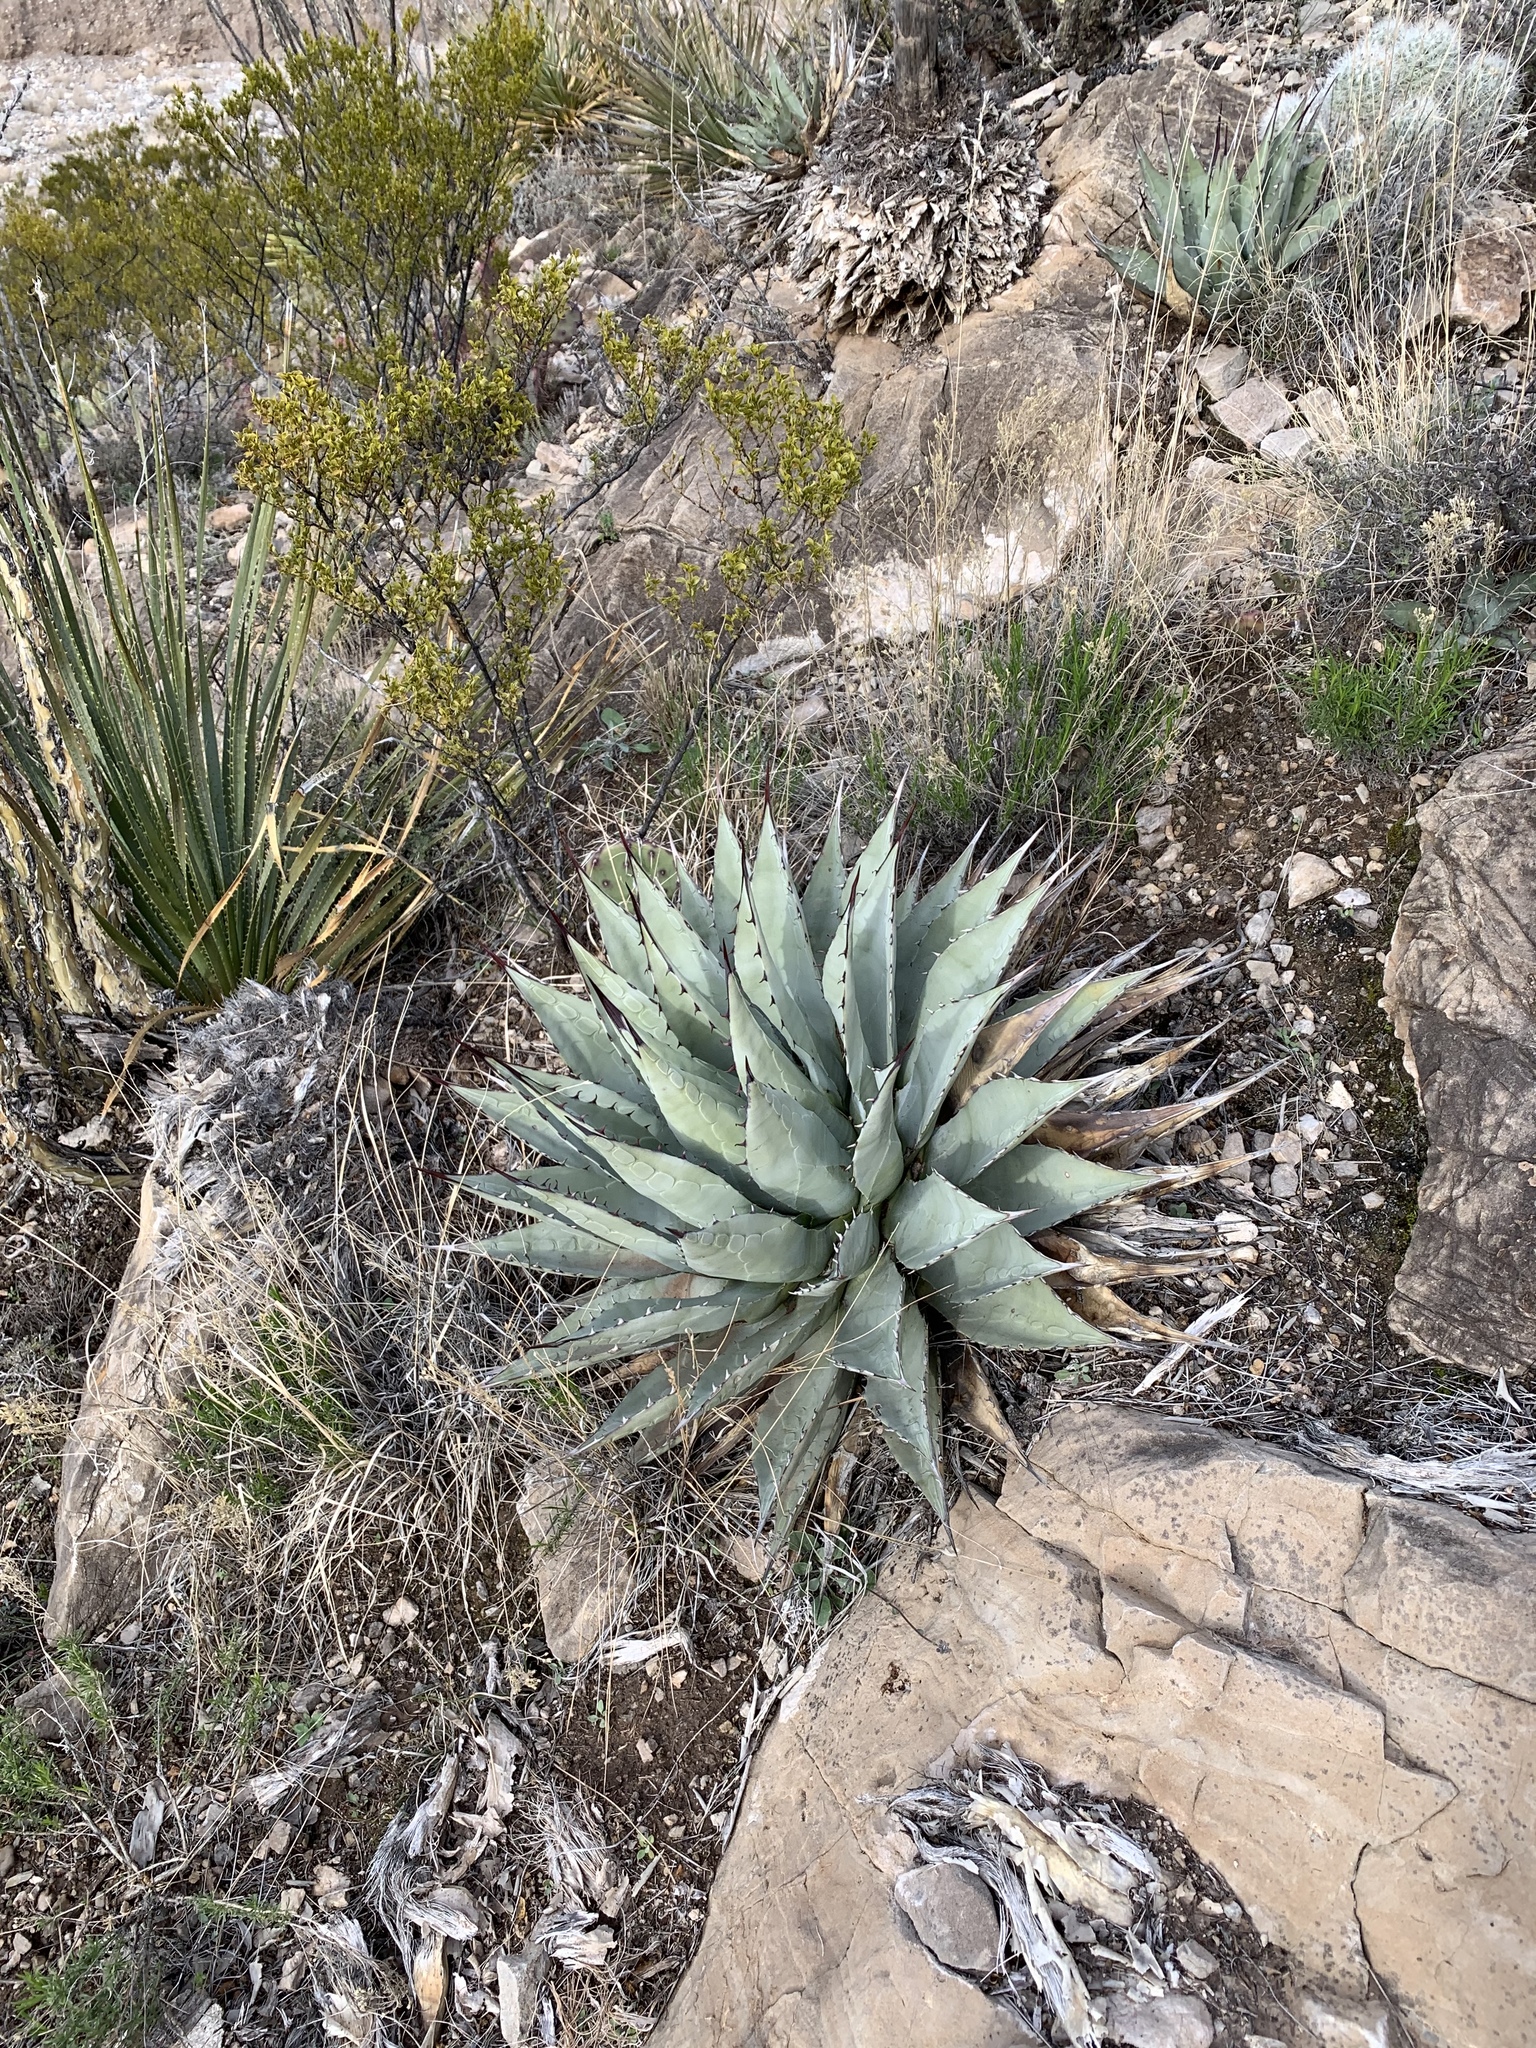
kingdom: Plantae
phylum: Tracheophyta
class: Liliopsida
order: Asparagales
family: Asparagaceae
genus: Agave
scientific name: Agave parryi
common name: Parry's agave
